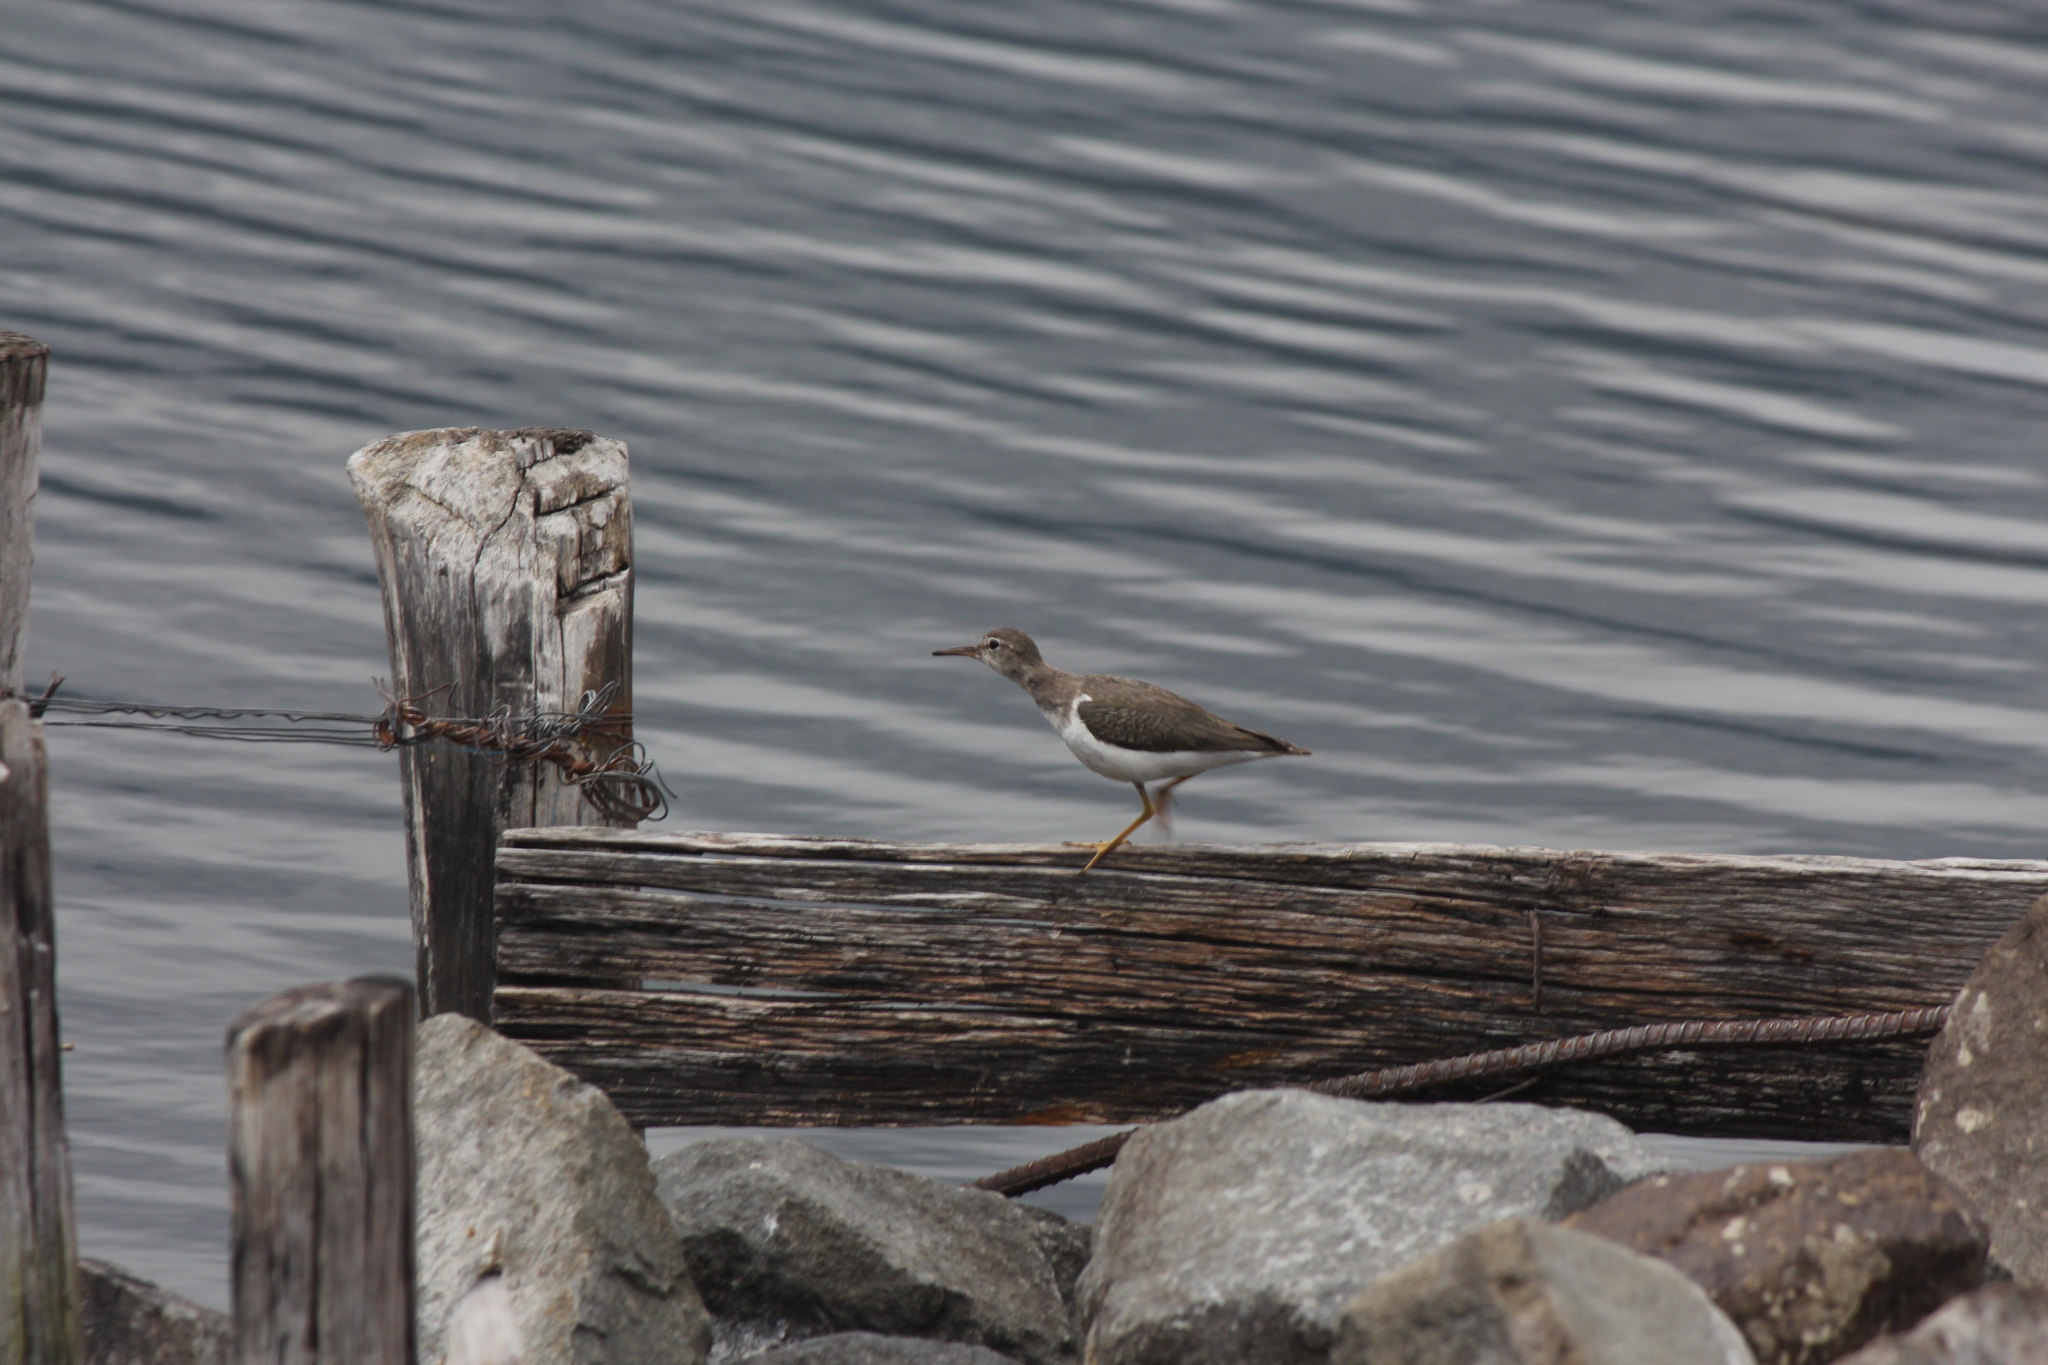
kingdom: Animalia
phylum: Chordata
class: Aves
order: Charadriiformes
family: Scolopacidae
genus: Actitis
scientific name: Actitis macularius
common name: Spotted sandpiper
